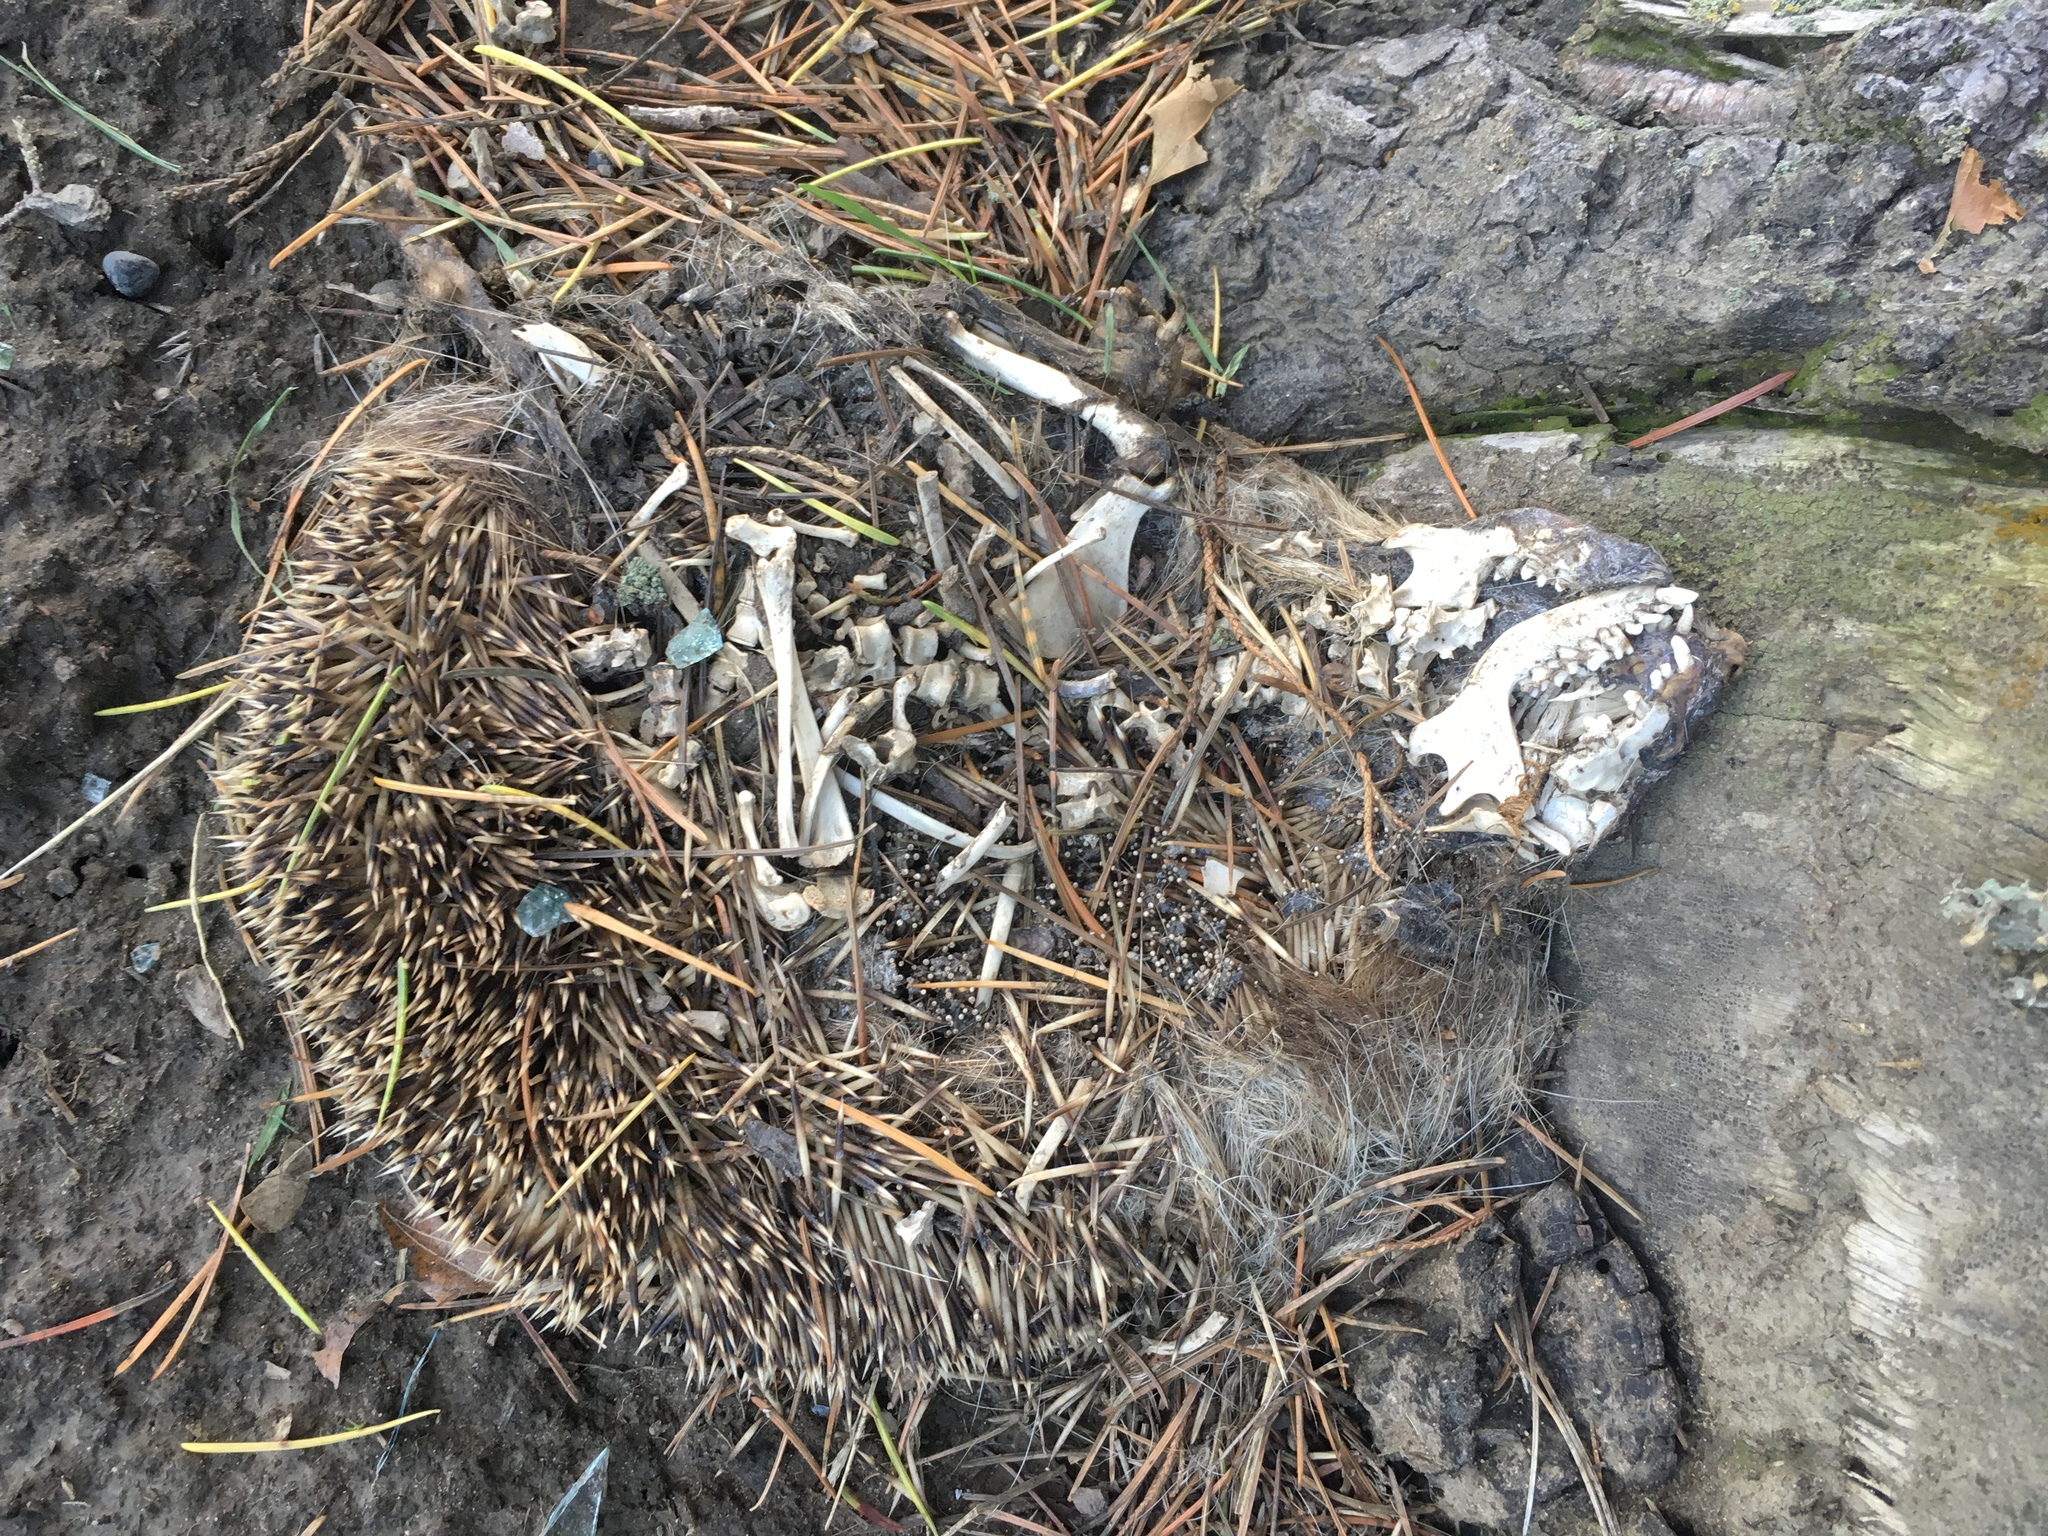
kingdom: Animalia
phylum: Chordata
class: Mammalia
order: Erinaceomorpha
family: Erinaceidae
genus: Erinaceus
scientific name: Erinaceus europaeus
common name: West european hedgehog
